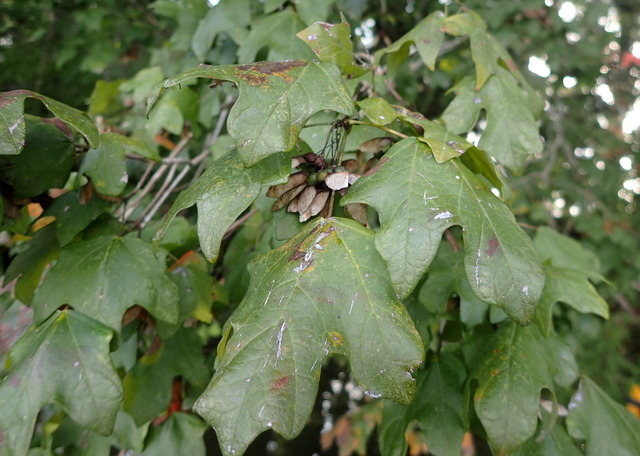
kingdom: Plantae
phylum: Tracheophyta
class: Magnoliopsida
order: Sapindales
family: Sapindaceae
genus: Acer
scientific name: Acer floridanum
